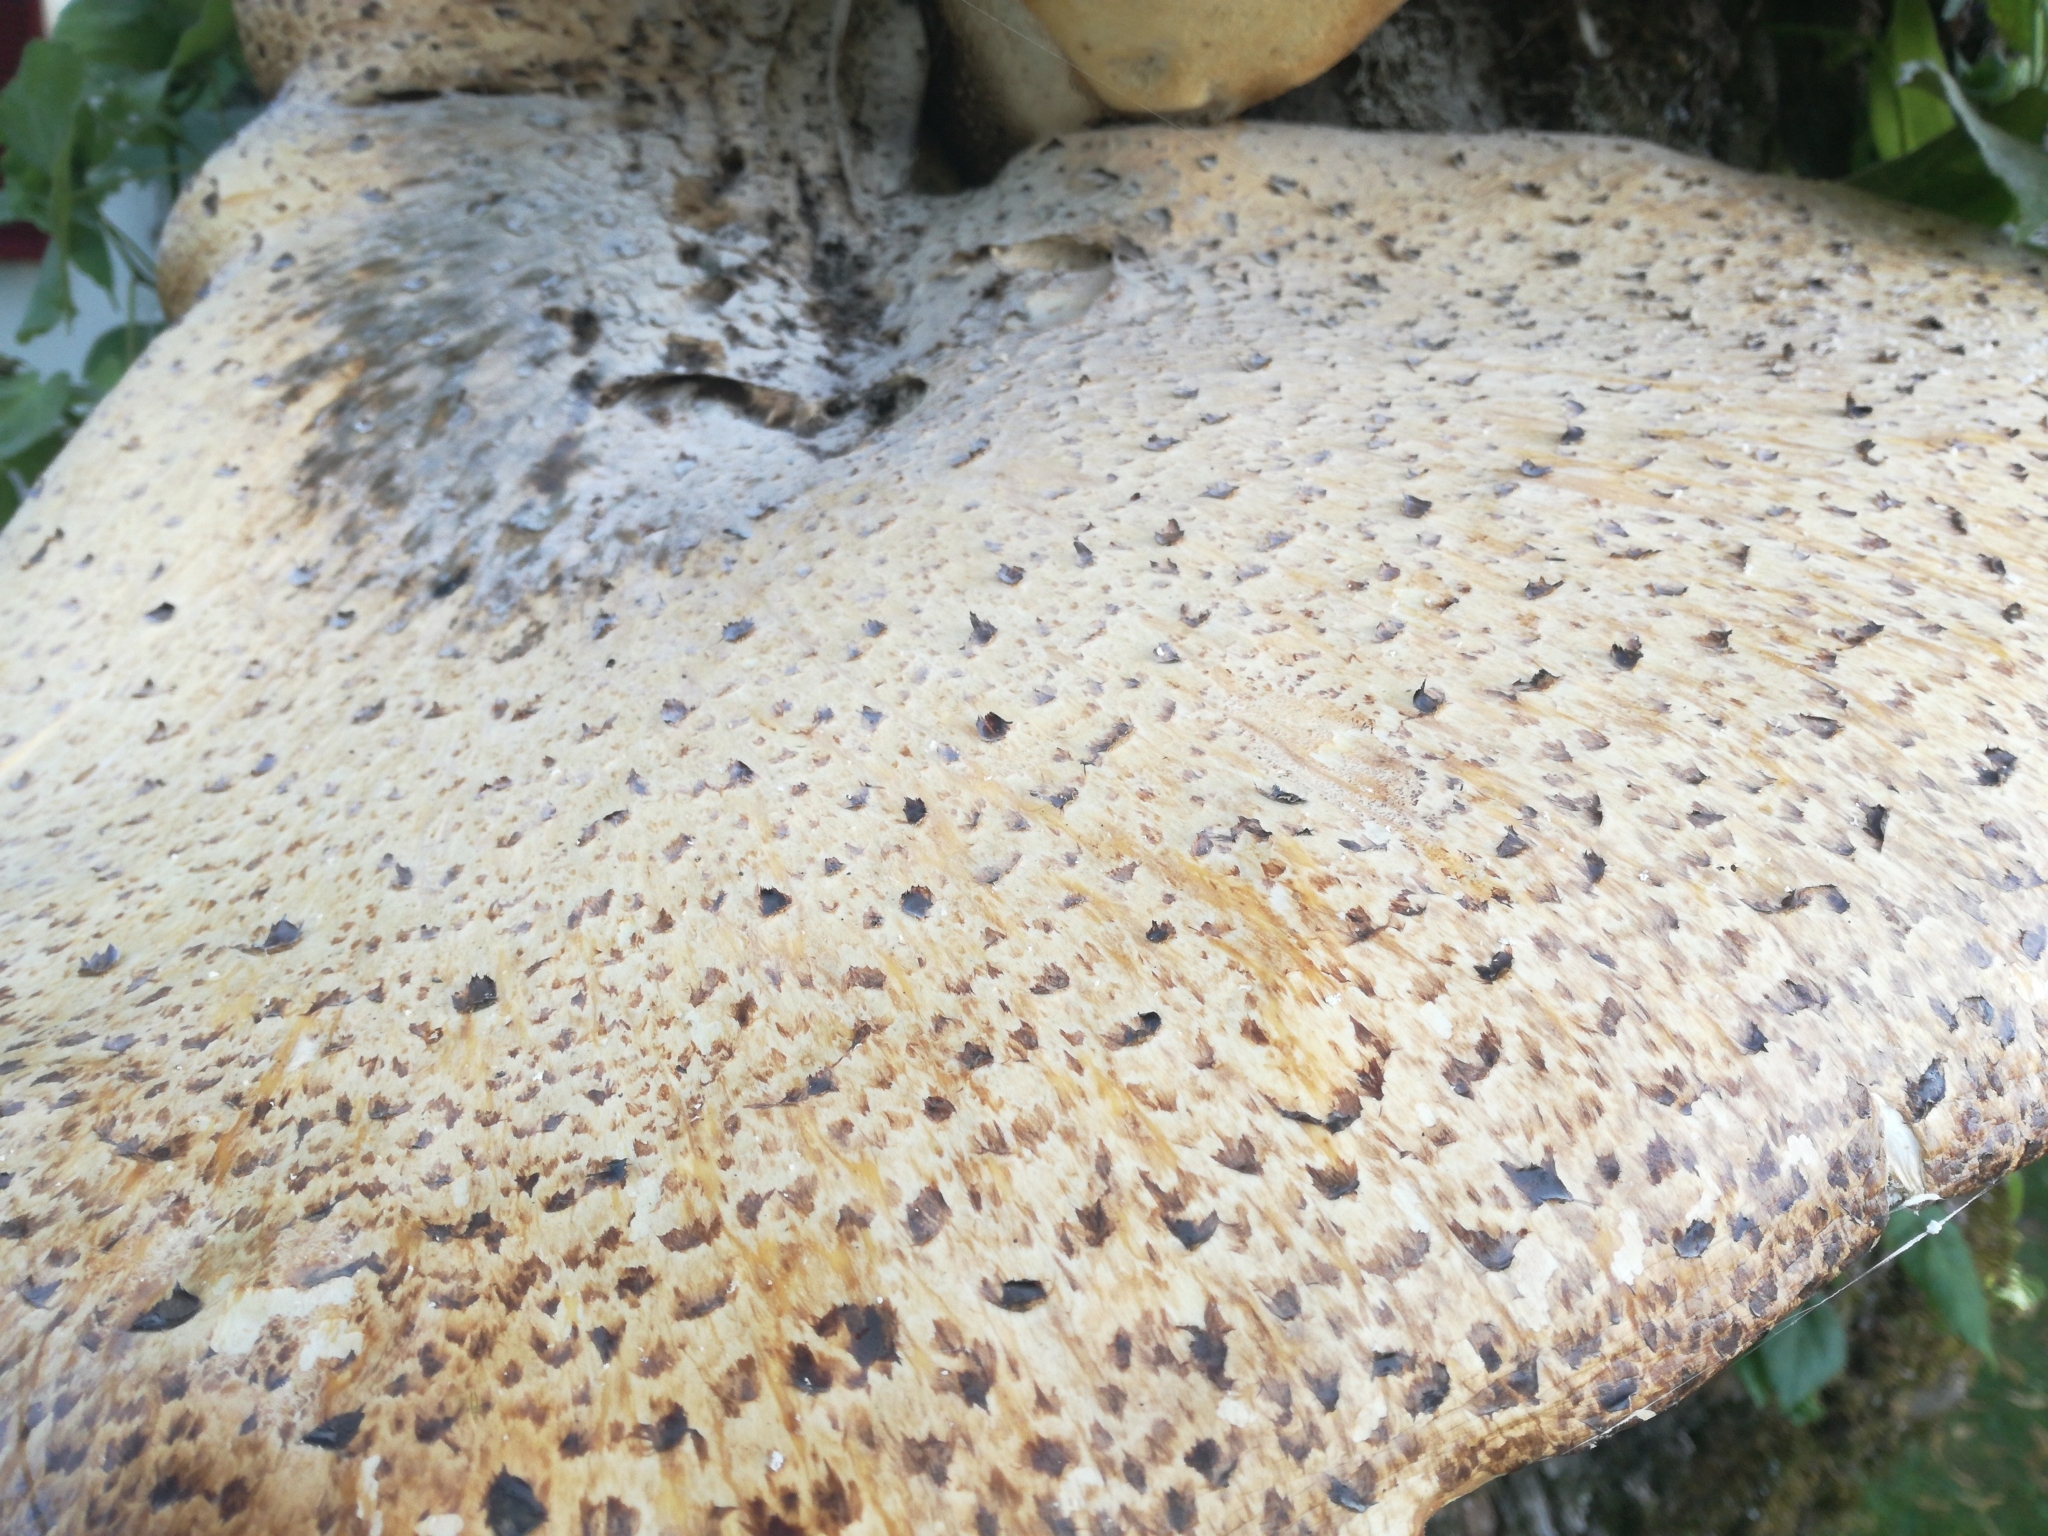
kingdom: Fungi
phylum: Basidiomycota
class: Agaricomycetes
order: Polyporales
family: Polyporaceae
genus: Cerioporus
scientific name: Cerioporus squamosus
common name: Dryad's saddle
